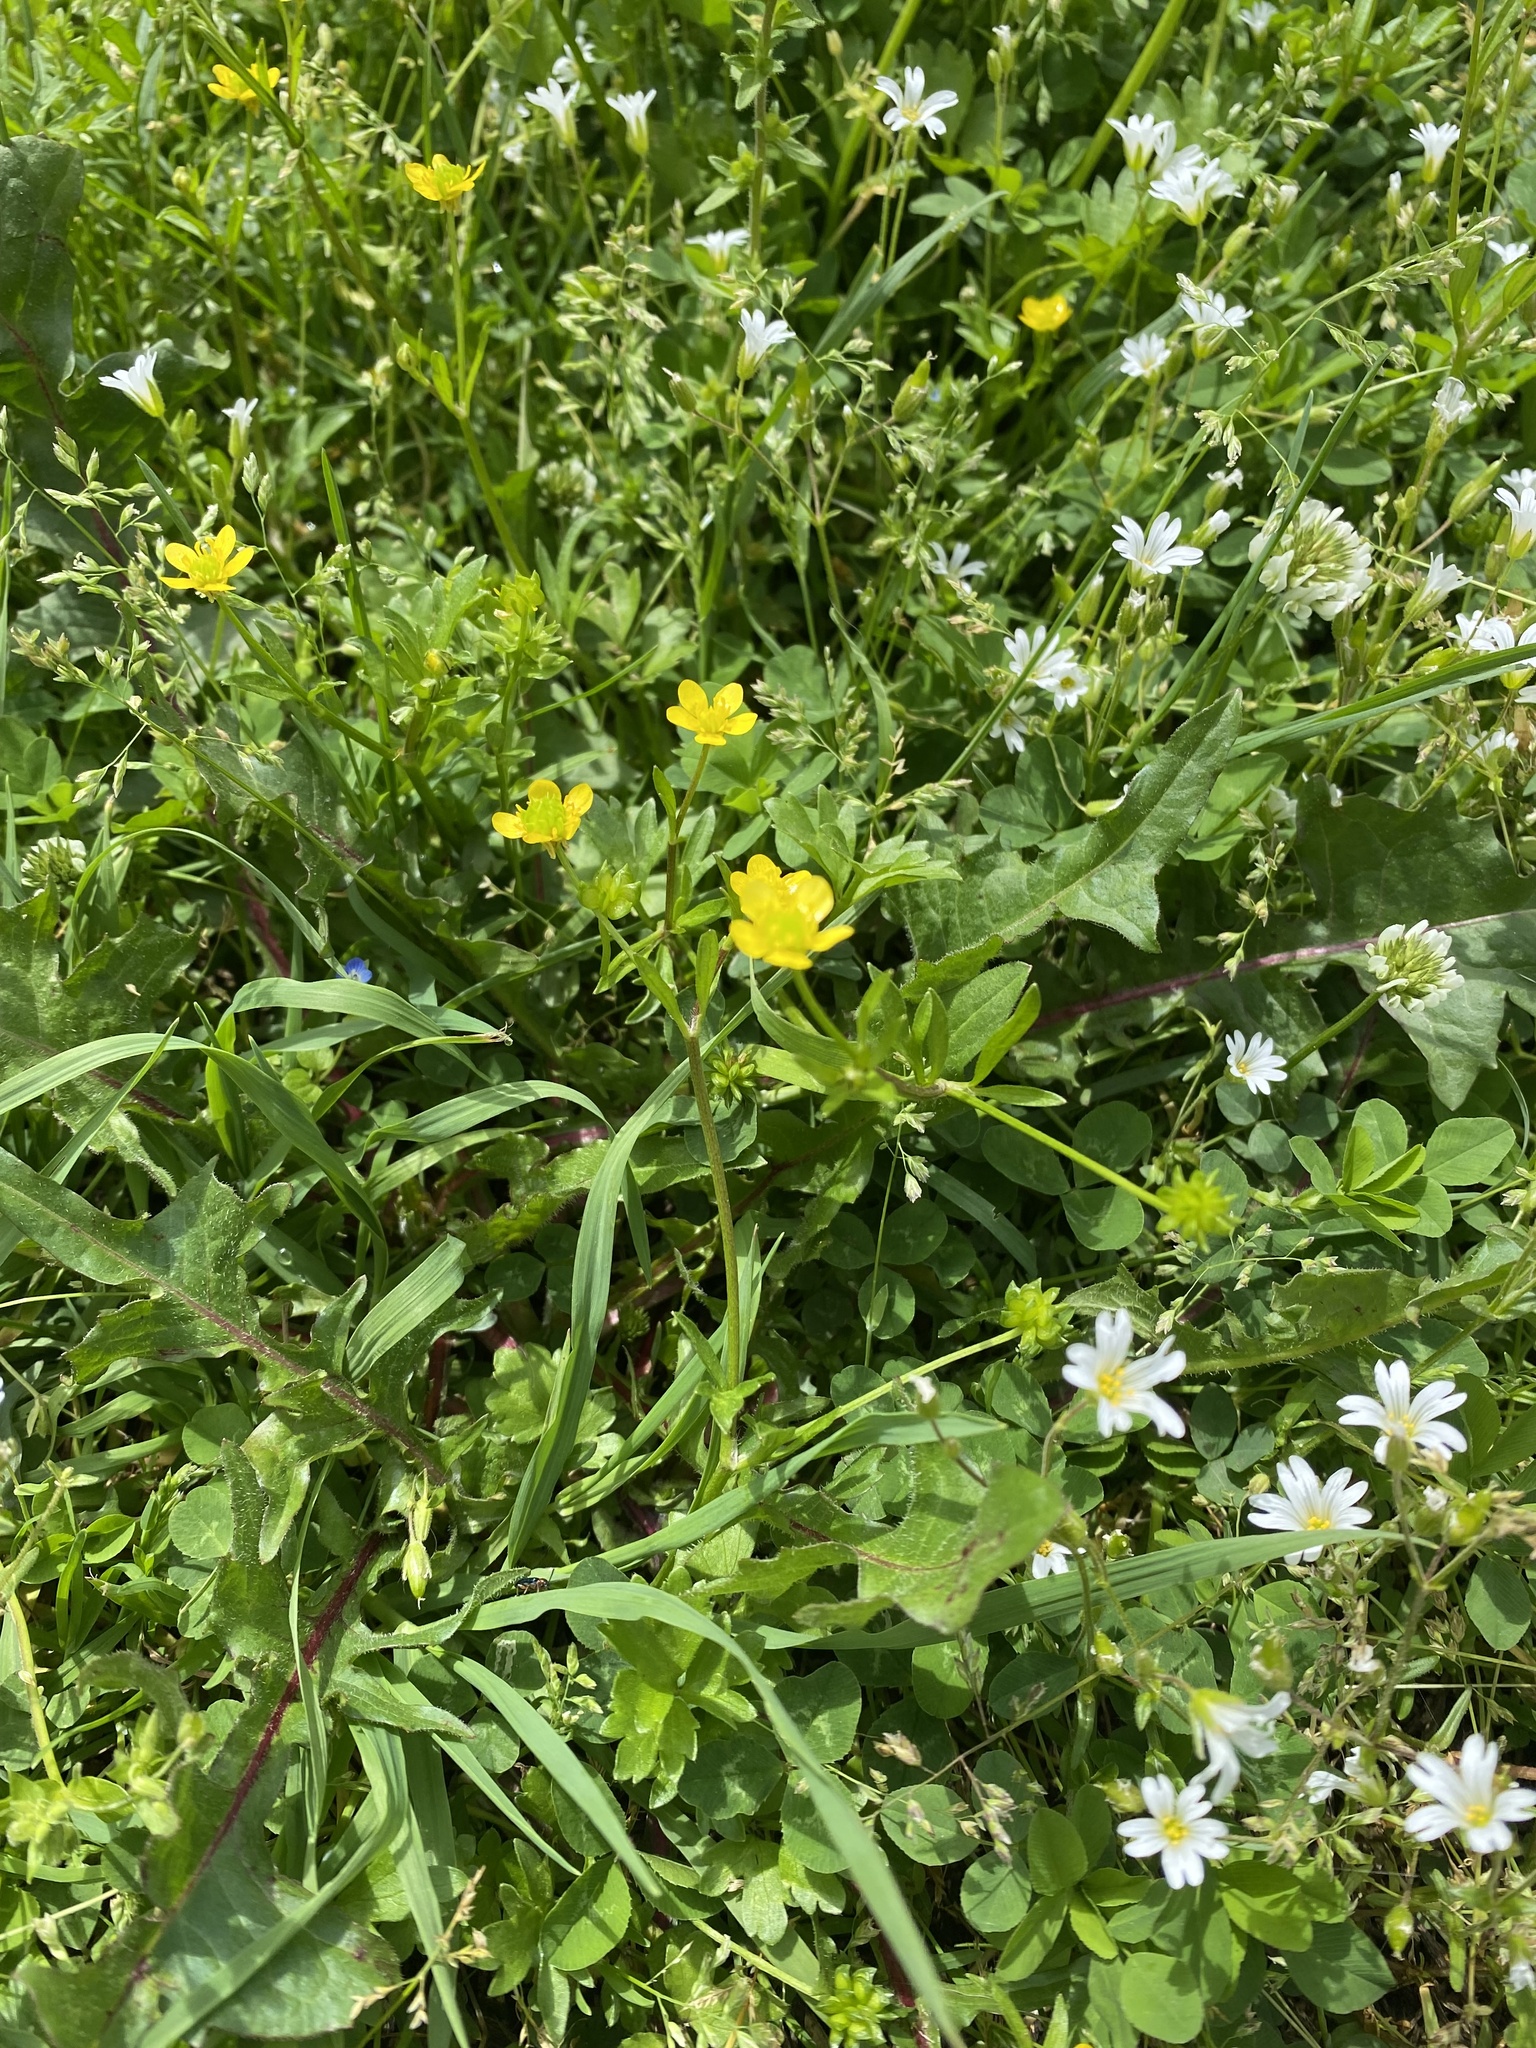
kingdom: Plantae
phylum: Tracheophyta
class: Magnoliopsida
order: Ranunculales
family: Ranunculaceae
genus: Ranunculus
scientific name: Ranunculus repens
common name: Creeping buttercup
